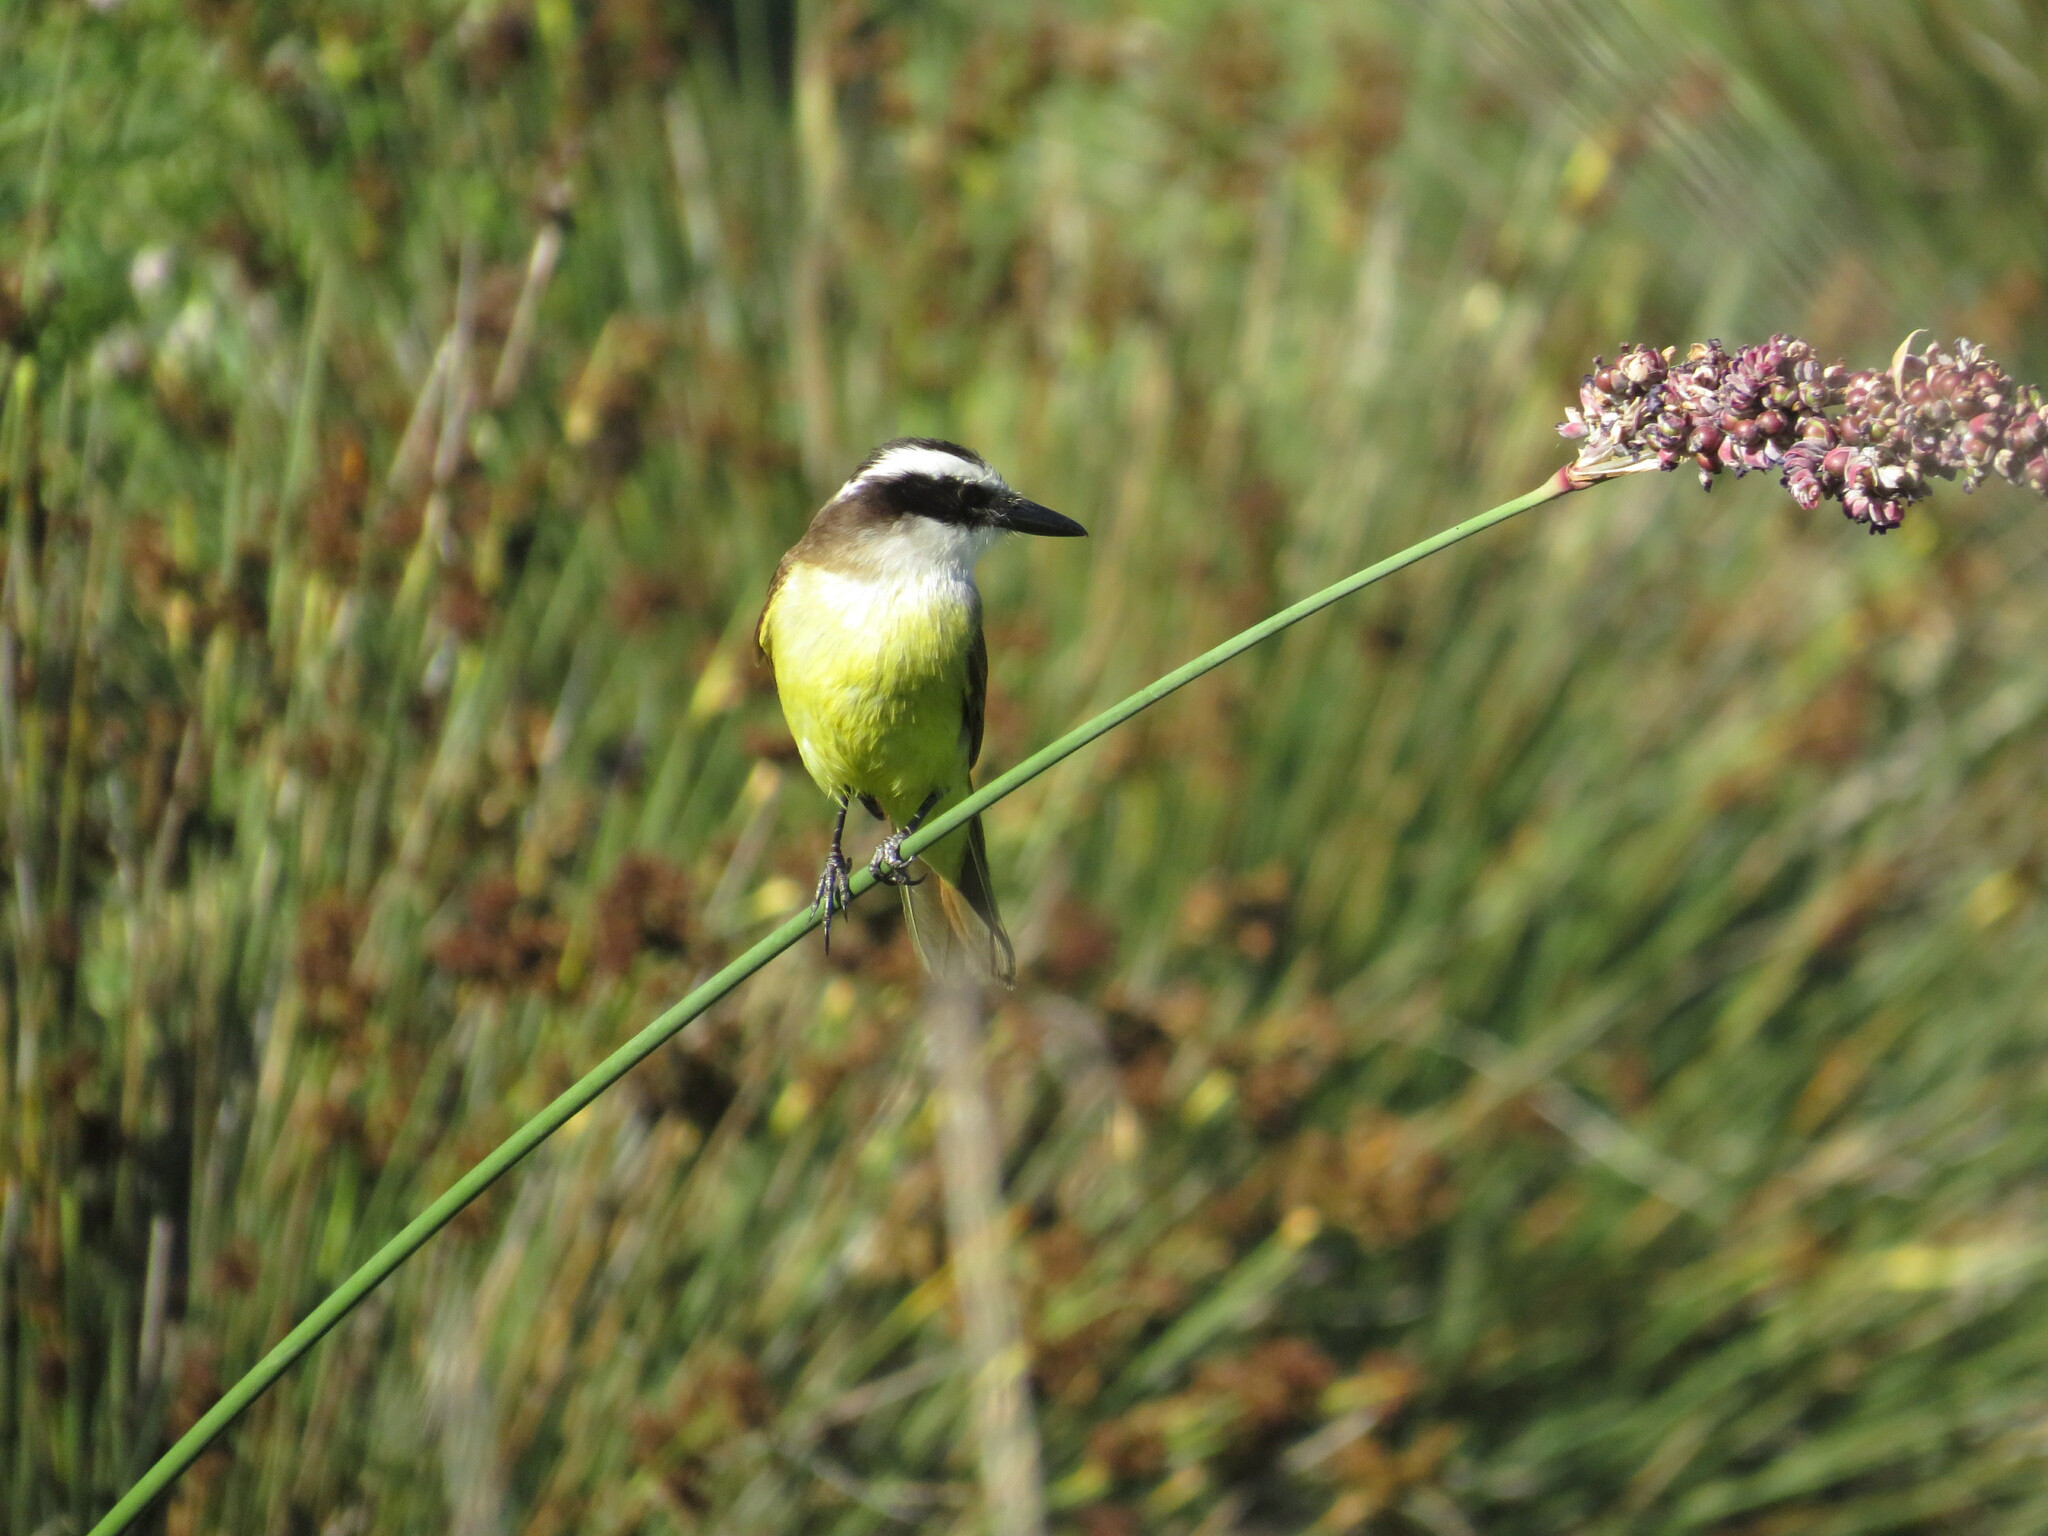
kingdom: Animalia
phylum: Chordata
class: Aves
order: Passeriformes
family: Tyrannidae
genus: Pitangus
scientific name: Pitangus sulphuratus
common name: Great kiskadee
